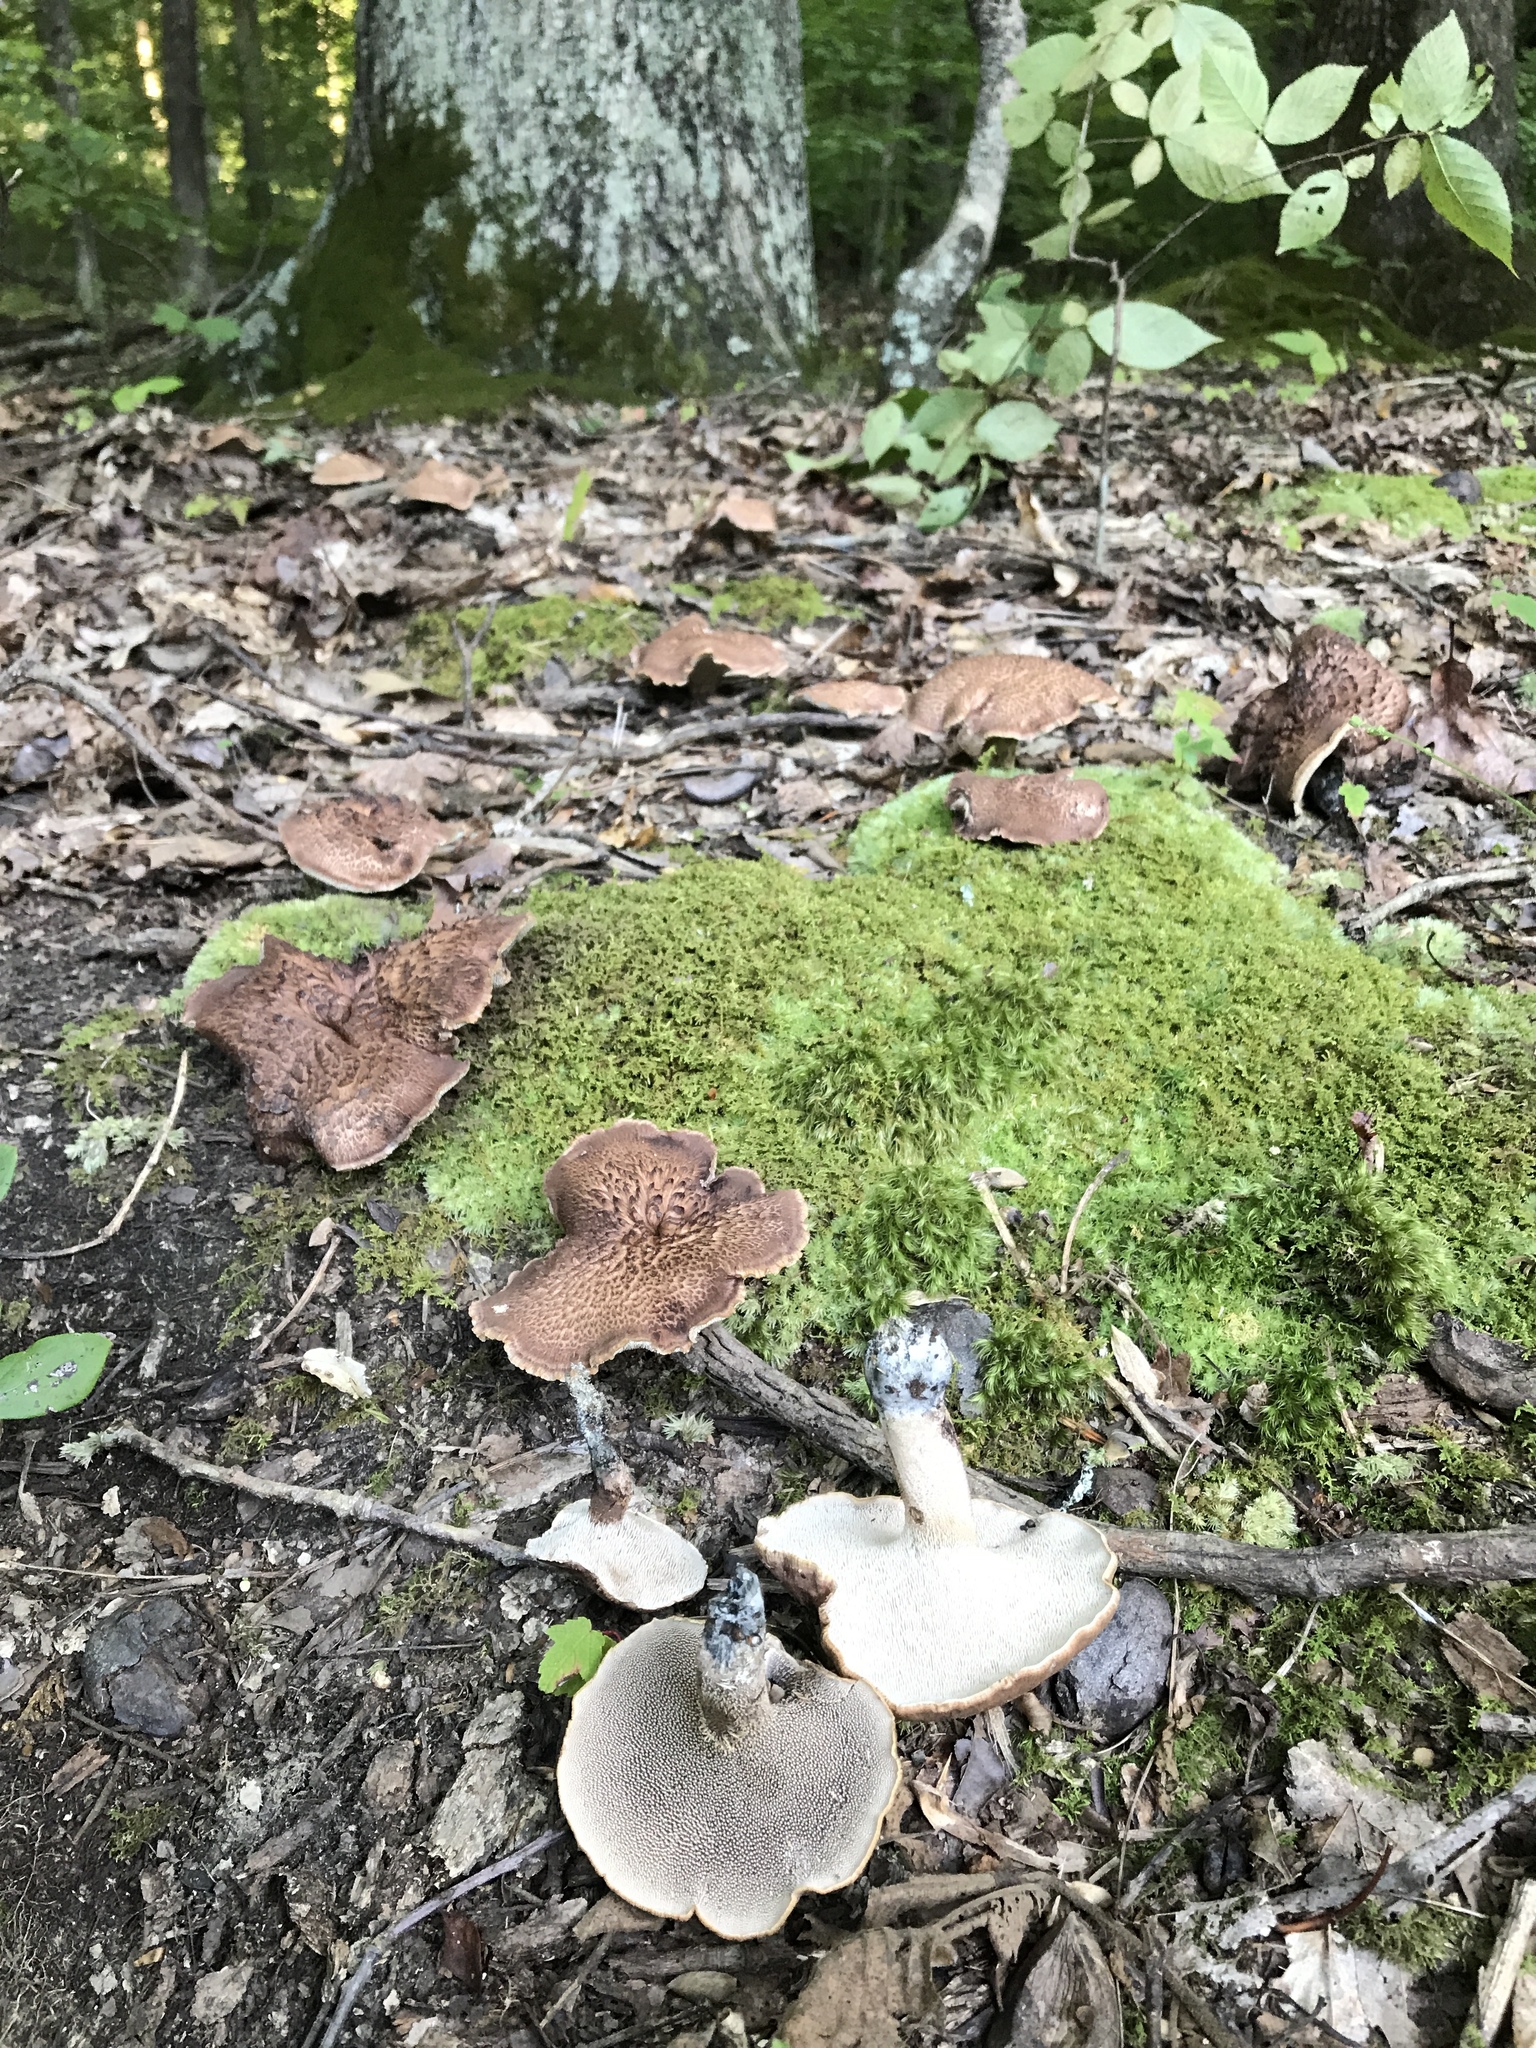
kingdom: Fungi
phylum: Basidiomycota
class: Agaricomycetes
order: Thelephorales
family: Bankeraceae
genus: Hydnellum
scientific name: Hydnellum scabrosum
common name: Bitter tooth
